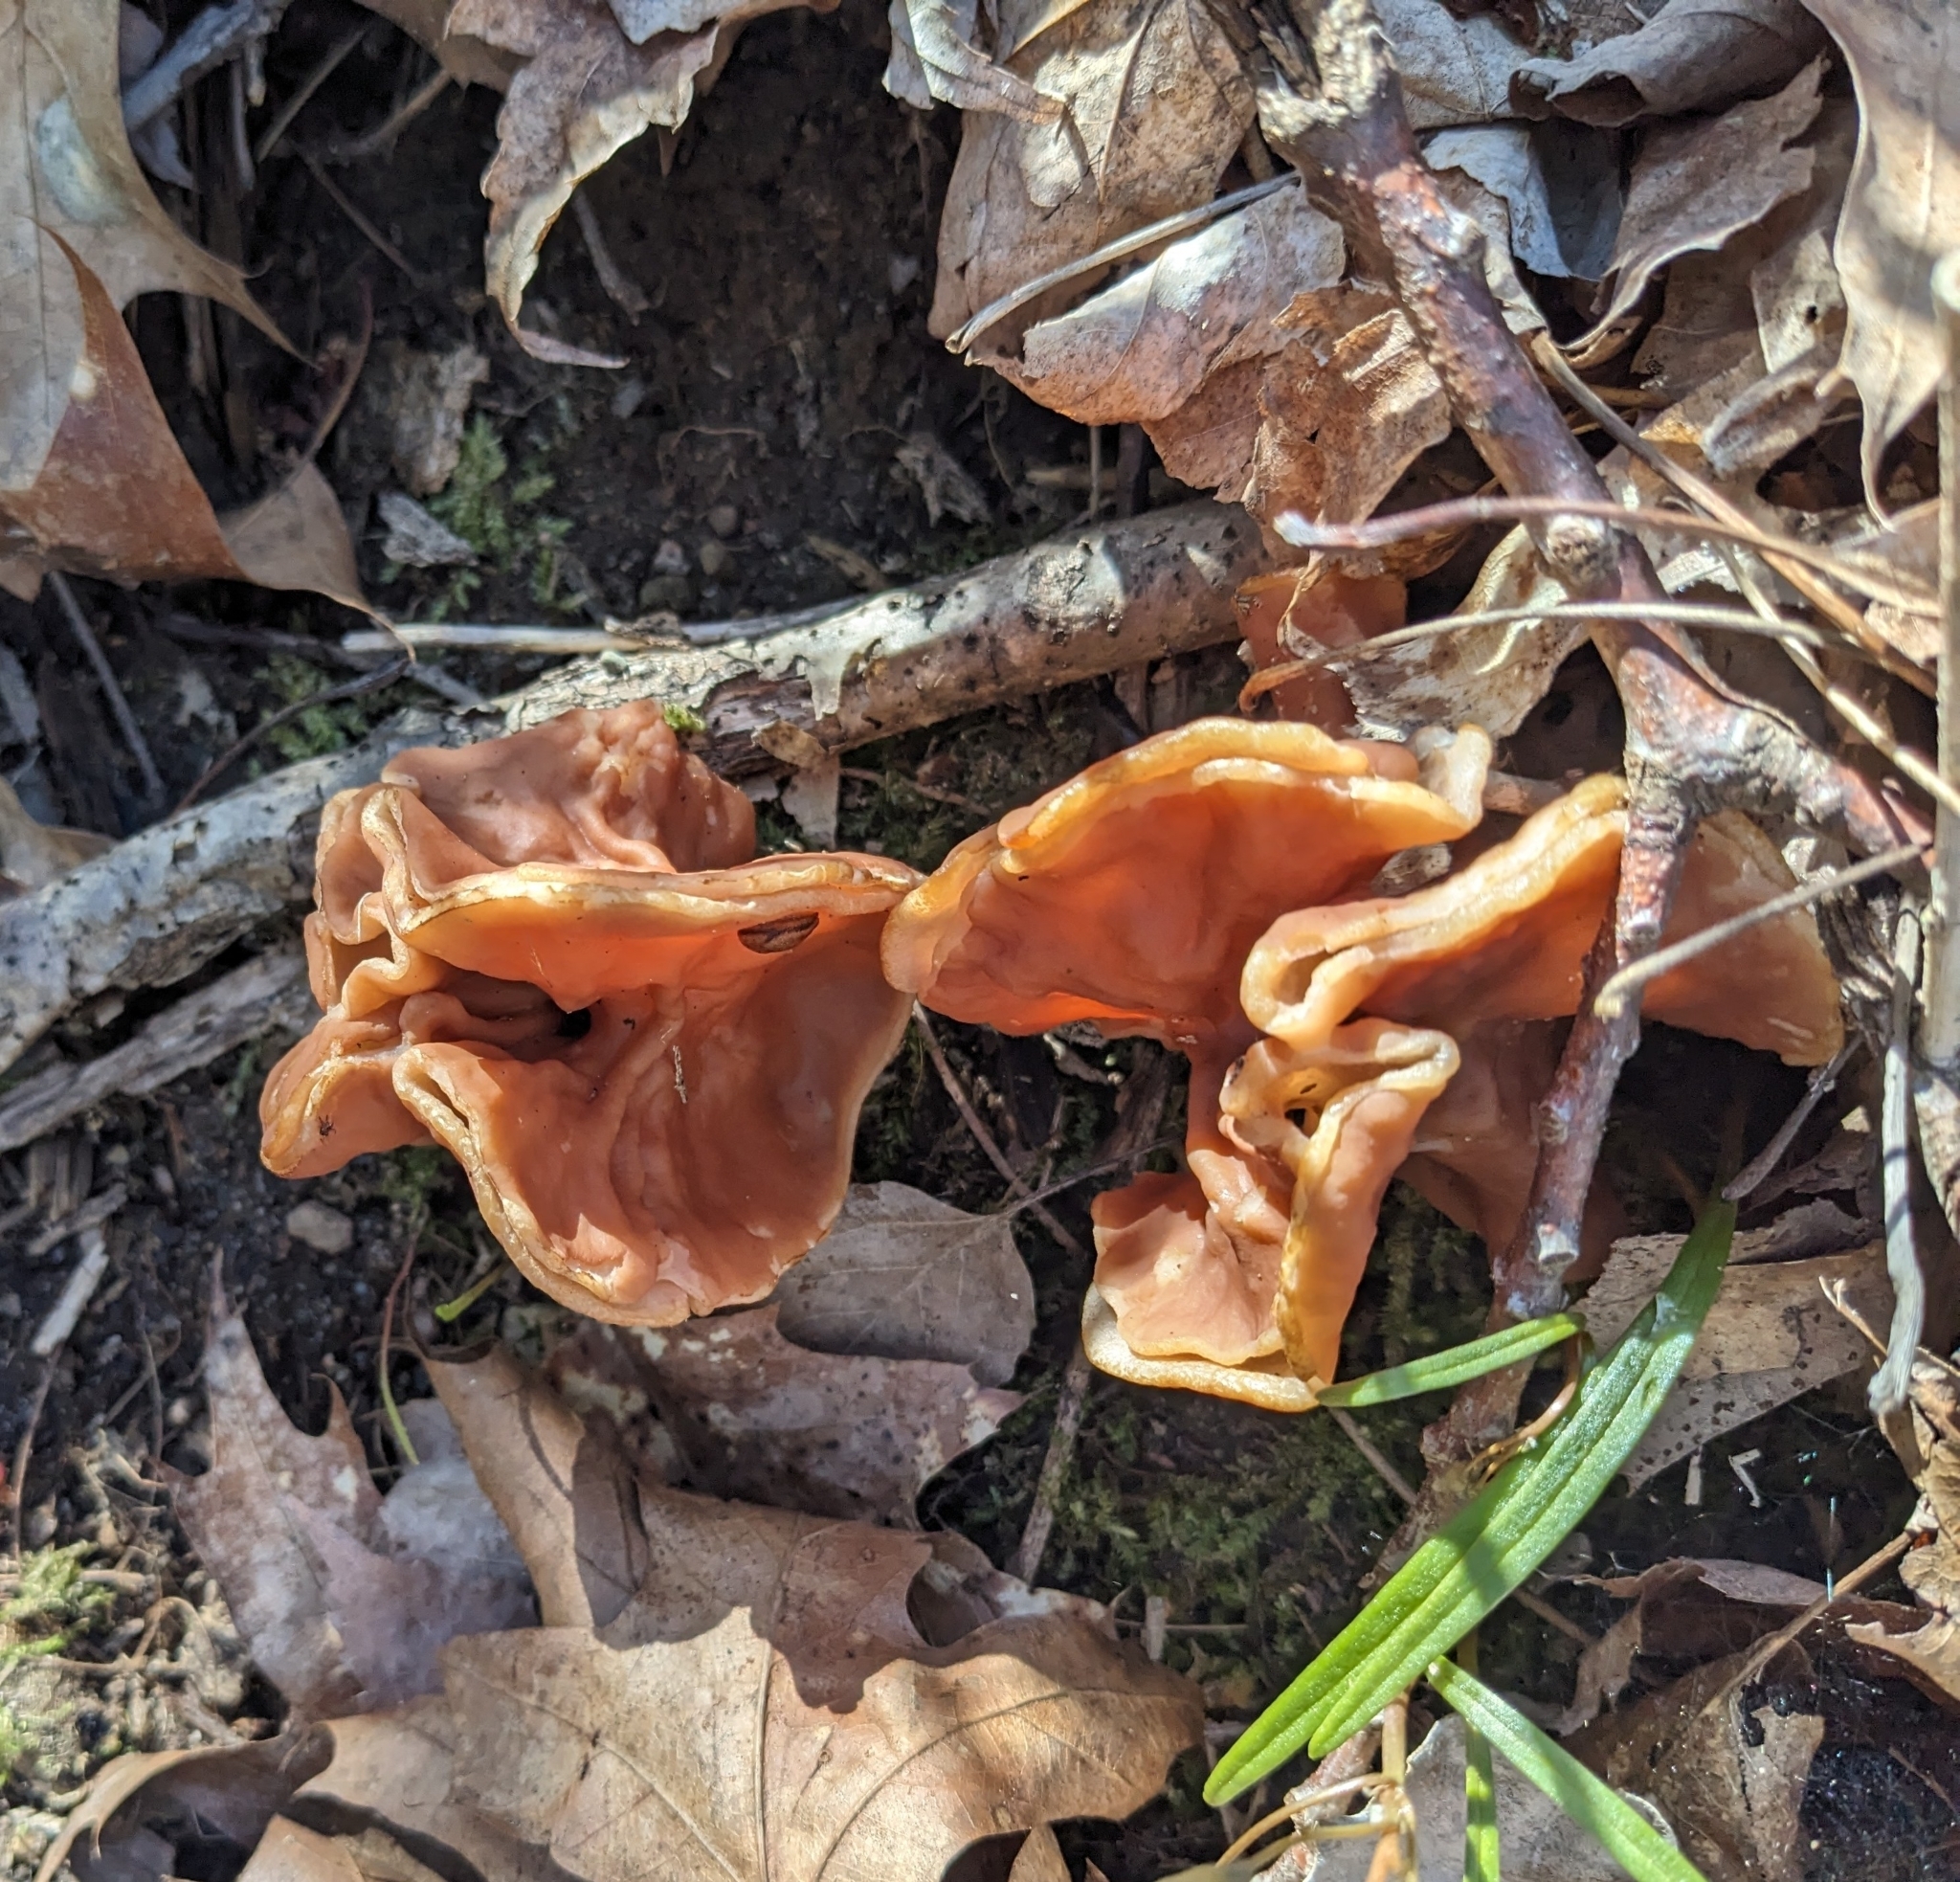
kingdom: Fungi
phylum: Ascomycota
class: Pezizomycetes
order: Pezizales
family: Discinaceae
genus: Discina
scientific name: Discina brunnea
